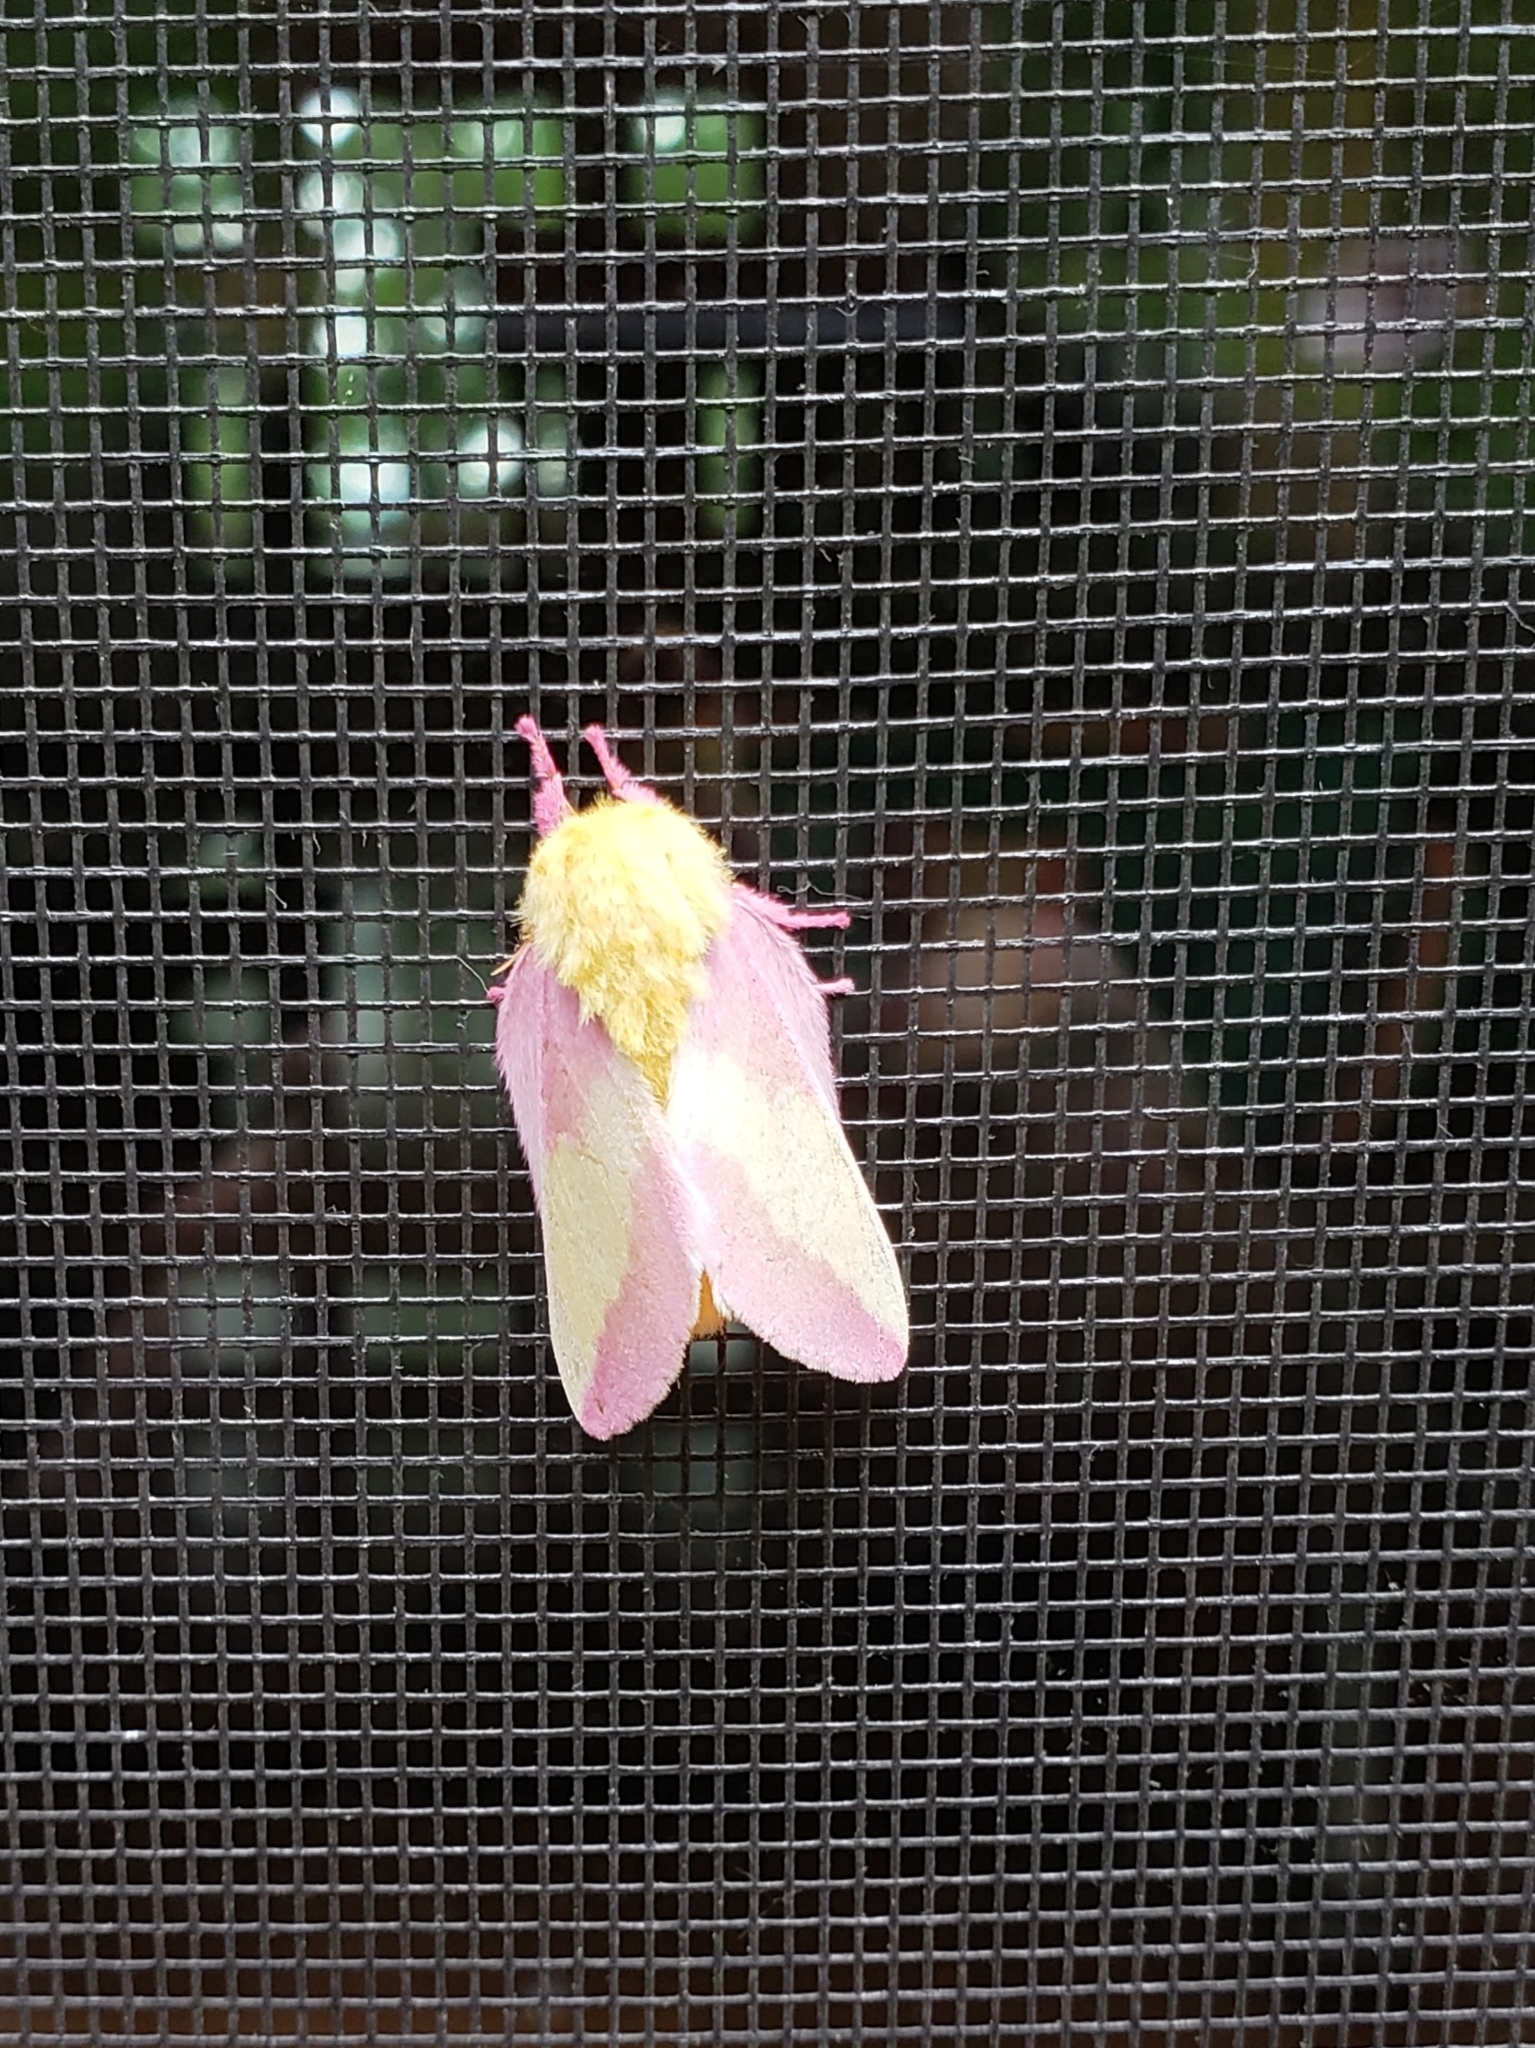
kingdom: Animalia
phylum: Arthropoda
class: Insecta
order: Lepidoptera
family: Saturniidae
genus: Dryocampa
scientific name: Dryocampa rubicunda
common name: Rosy maple moth
